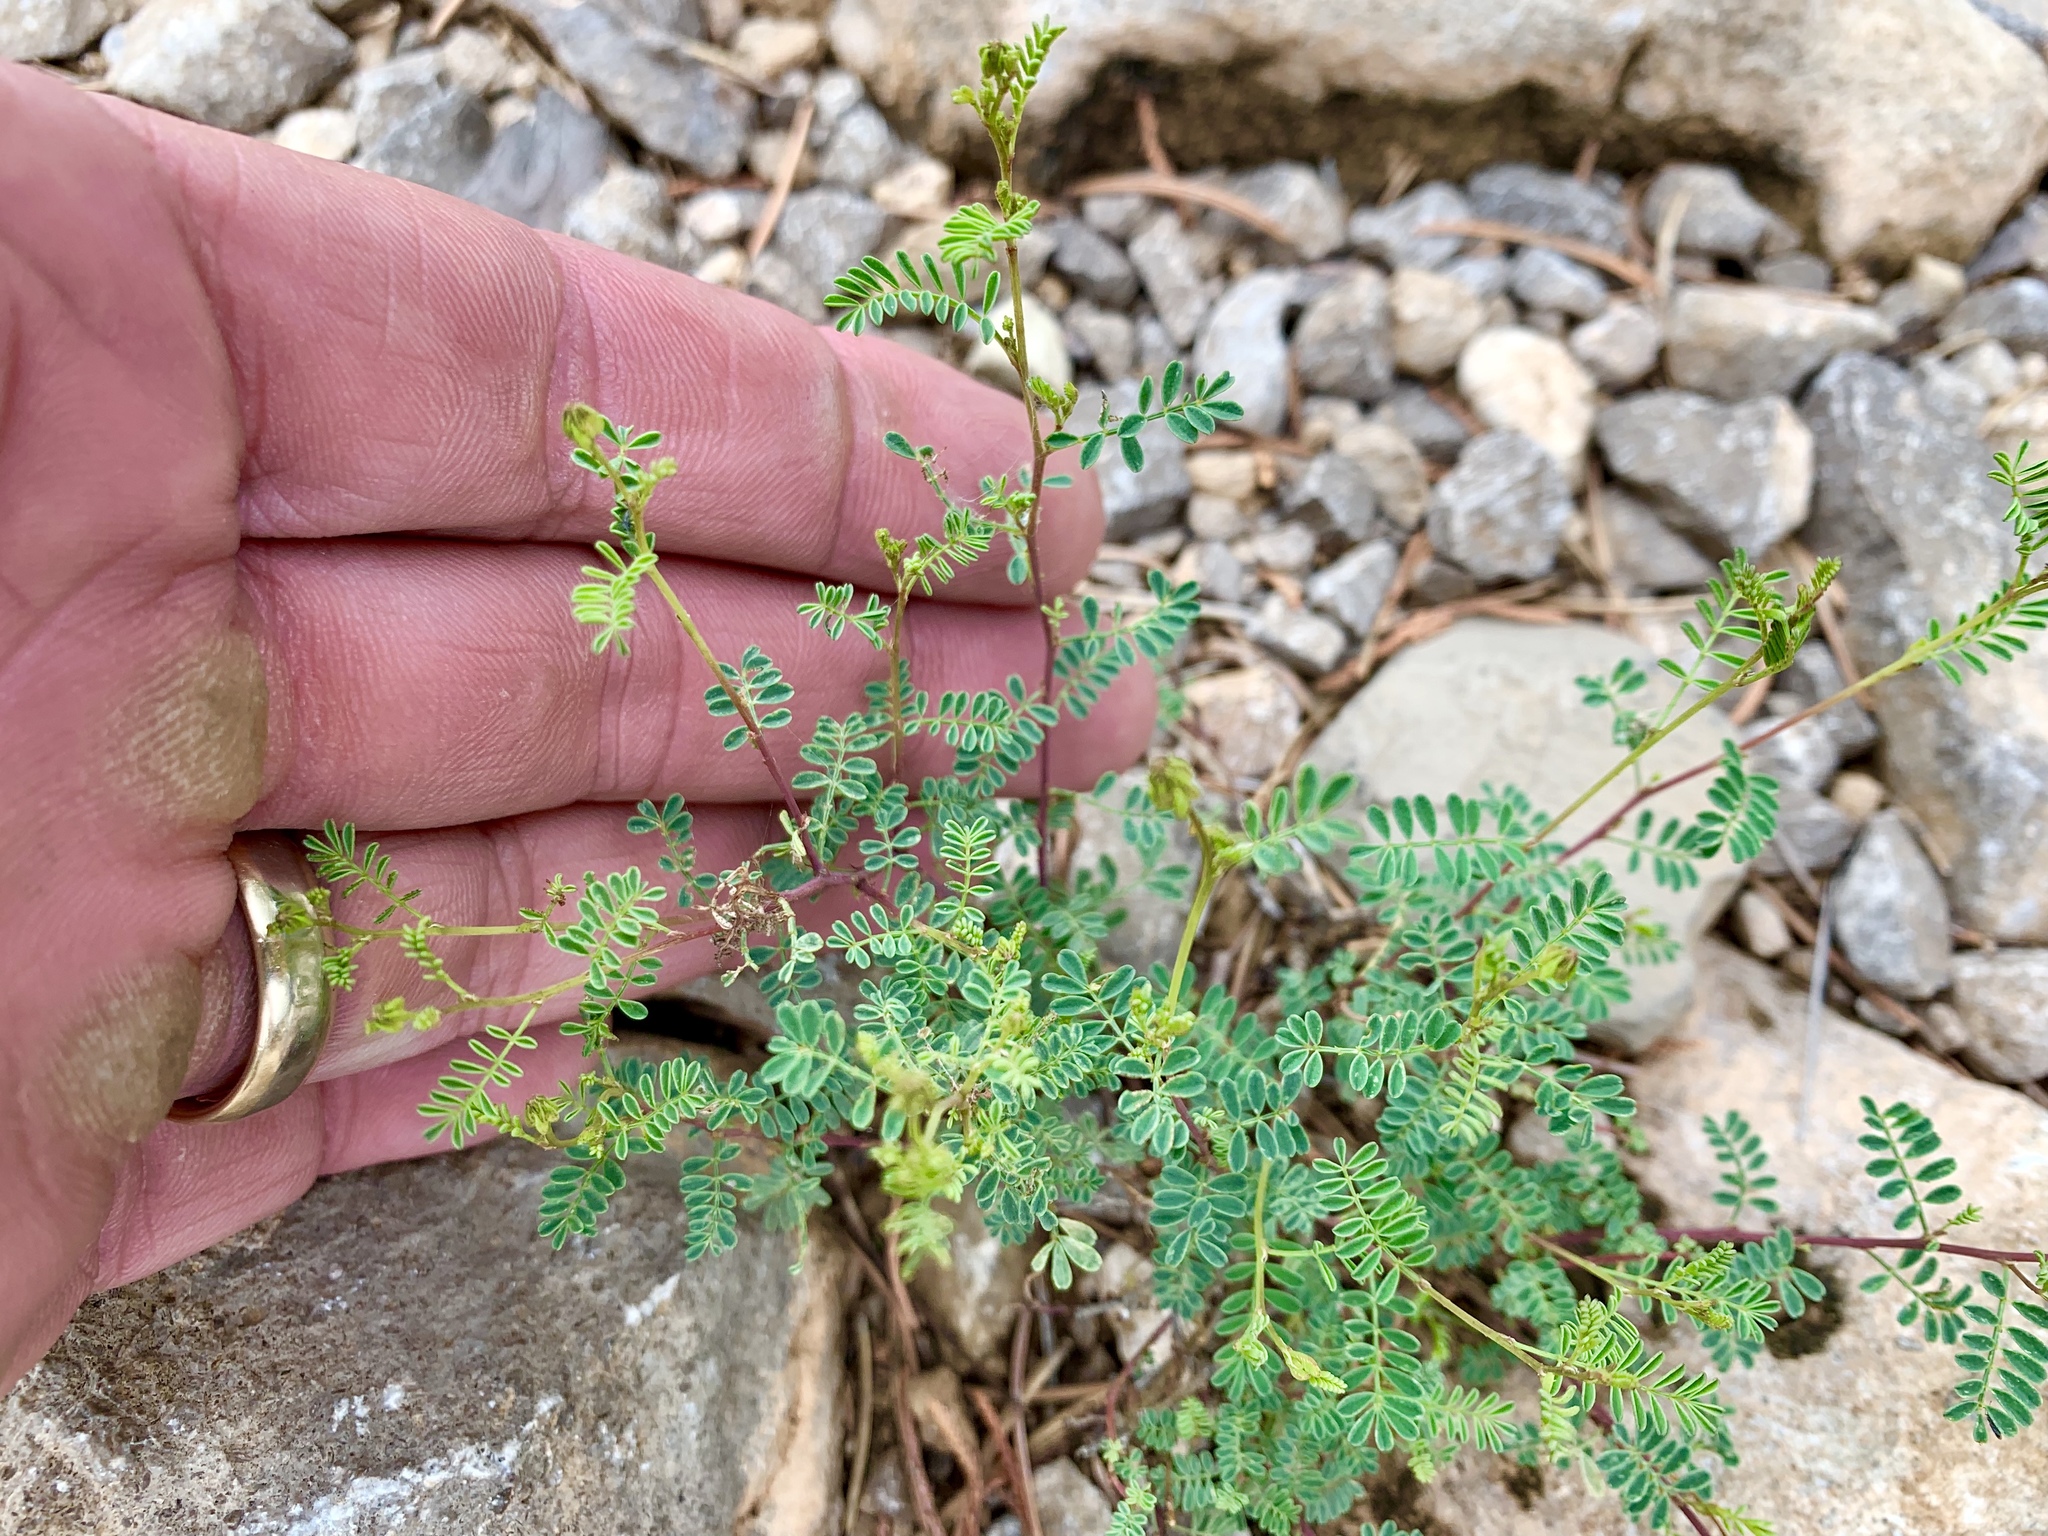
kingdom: Plantae
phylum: Tracheophyta
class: Magnoliopsida
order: Fabales
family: Fabaceae
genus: Dalea
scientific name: Dalea frutescens
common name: Black dalea
